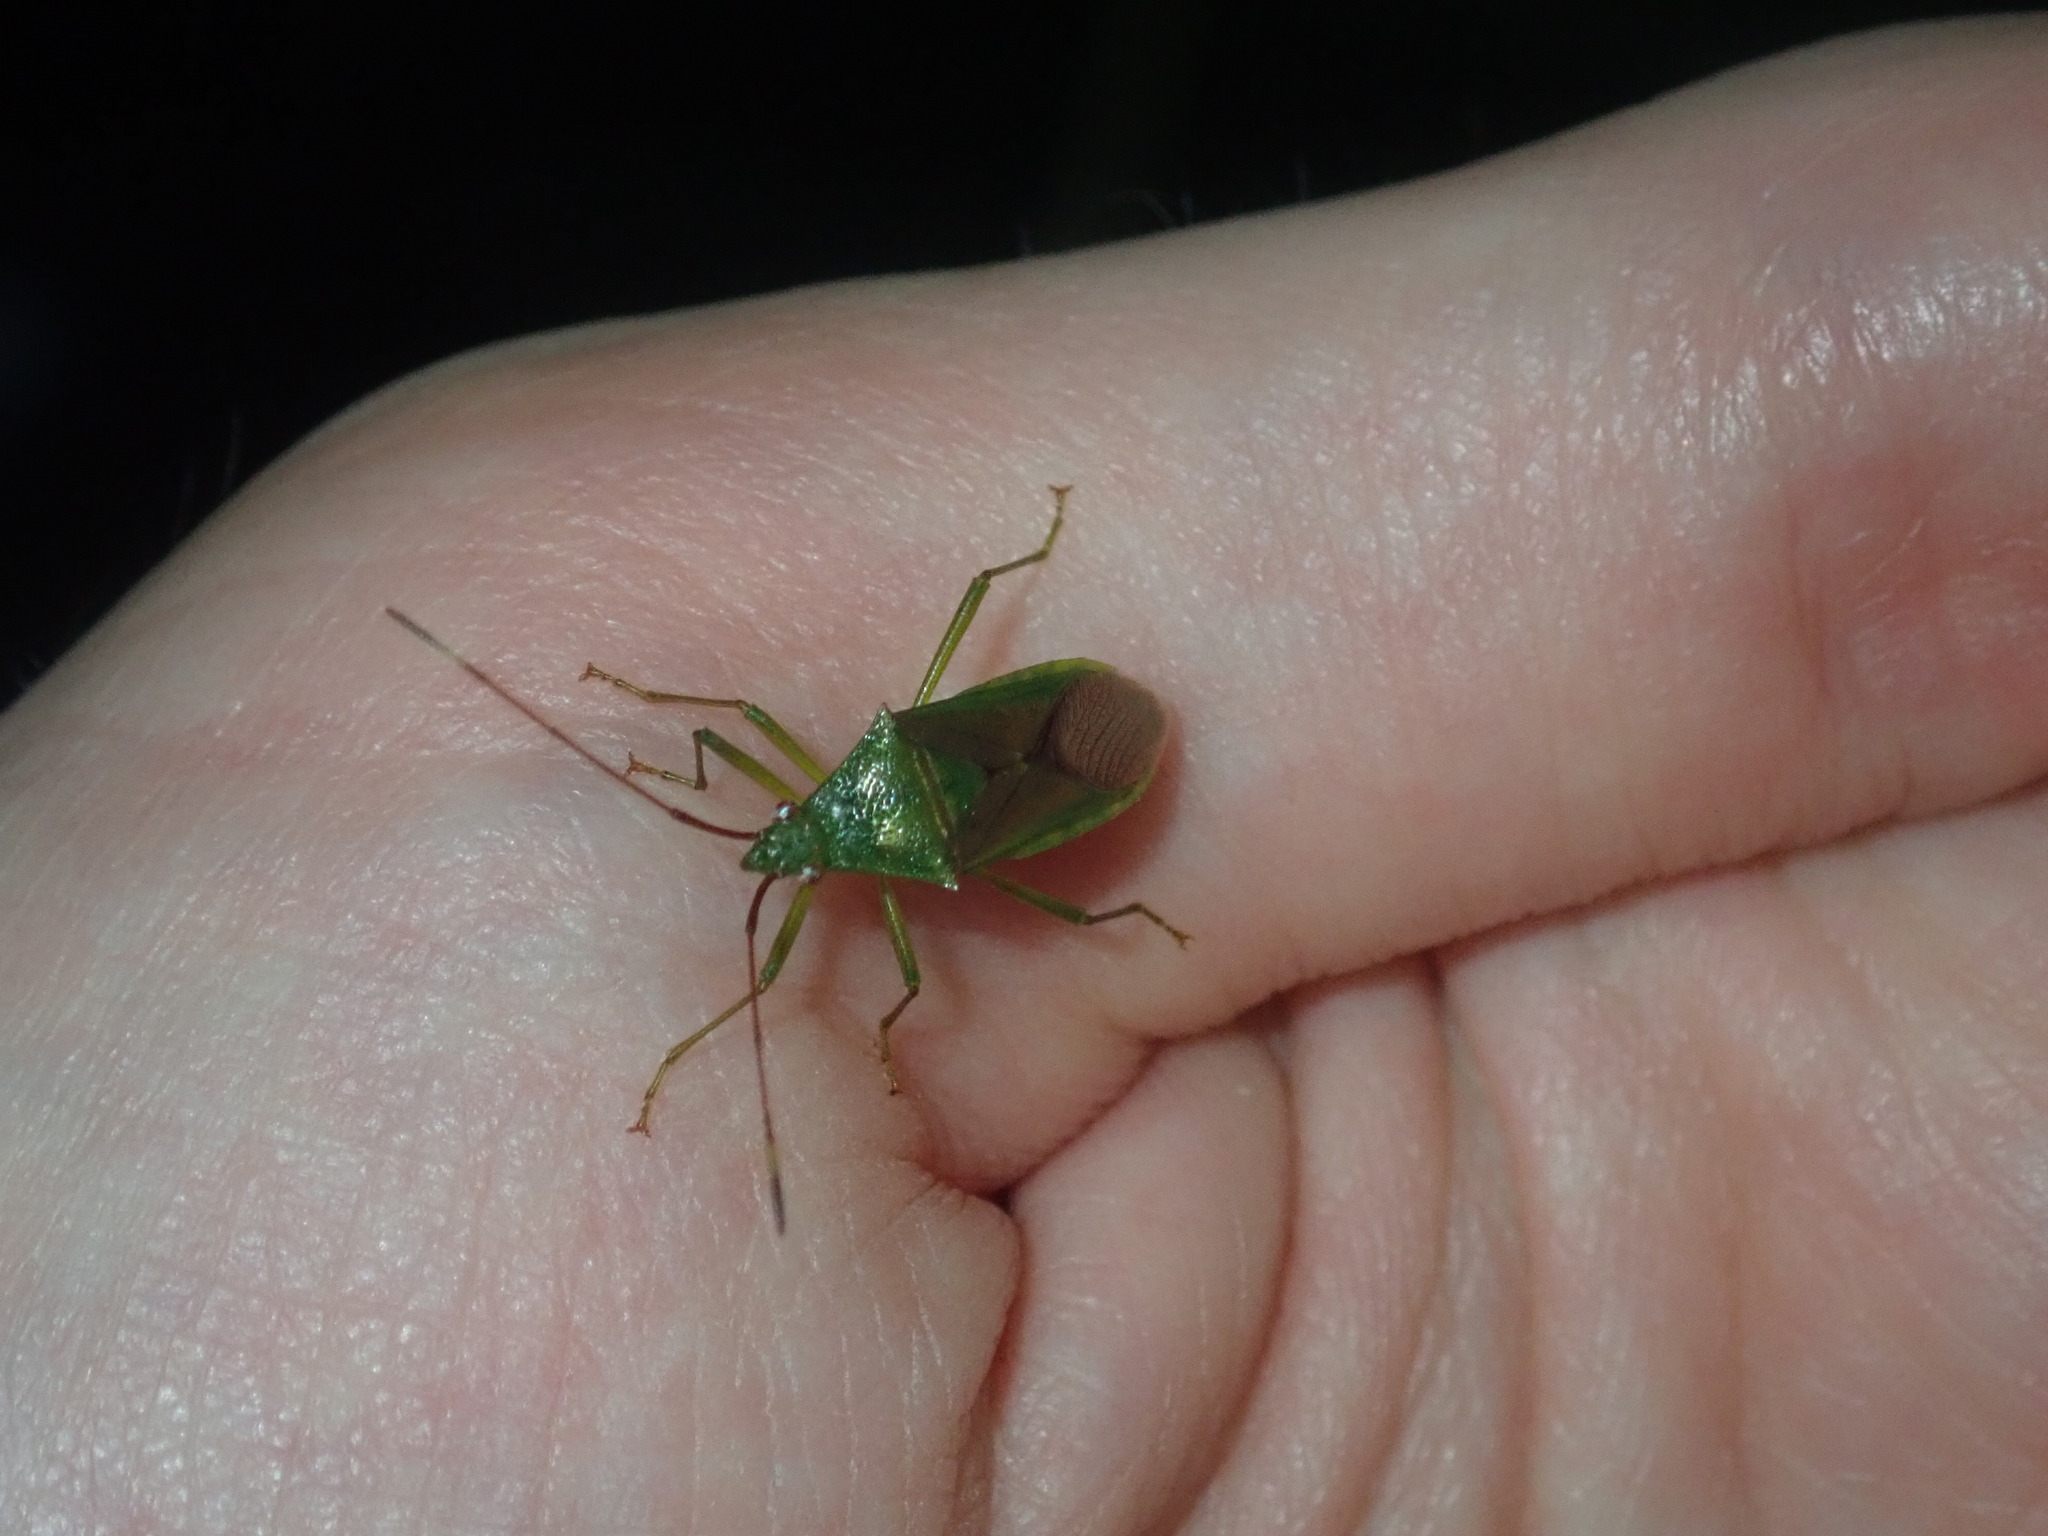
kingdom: Animalia
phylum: Arthropoda
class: Insecta
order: Hemiptera
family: Coreidae
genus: Amblypelta
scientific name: Amblypelta nitida
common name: Fruitspotting bug
